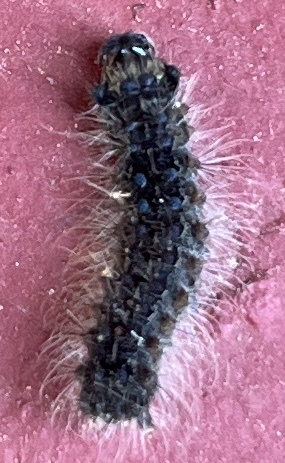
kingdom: Animalia
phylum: Arthropoda
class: Insecta
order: Lepidoptera
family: Erebidae
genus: Lymantria
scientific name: Lymantria dispar
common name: Gypsy moth
